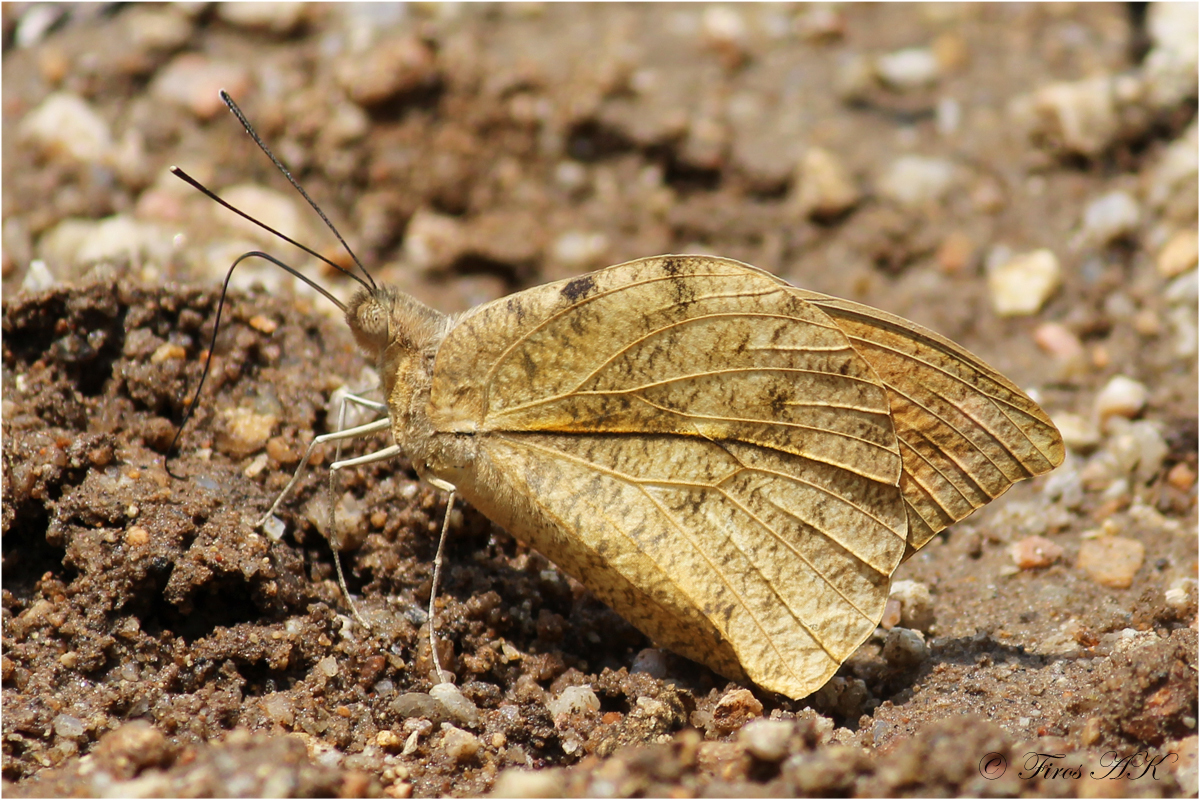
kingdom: Animalia
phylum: Arthropoda
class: Insecta
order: Lepidoptera
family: Pieridae
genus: Hebomoia
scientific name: Hebomoia glaucippe
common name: Great orange tip
